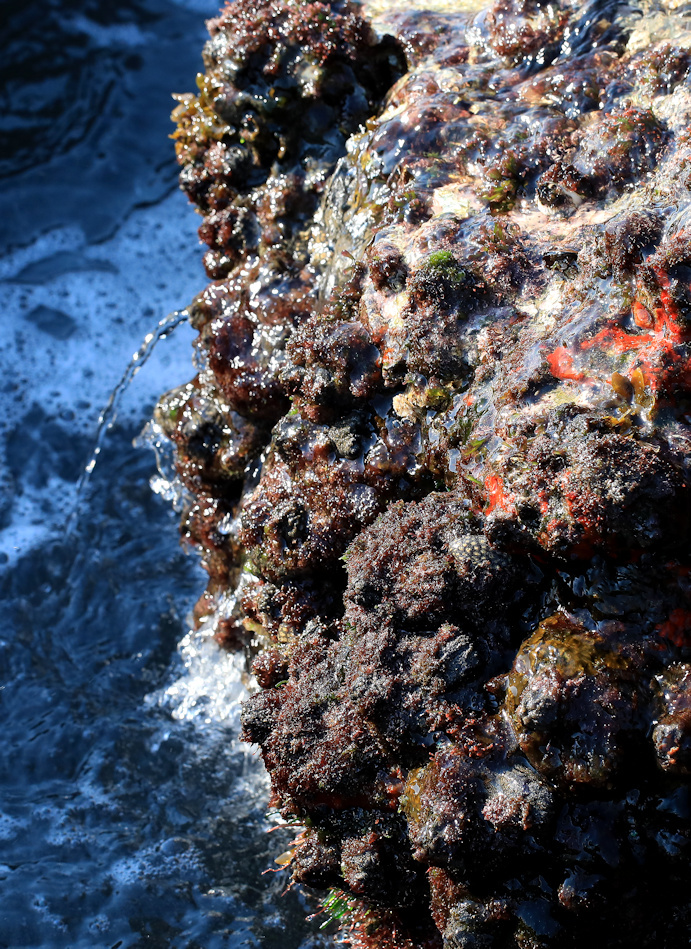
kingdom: Animalia
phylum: Chordata
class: Ascidiacea
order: Stolidobranchia
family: Pyuridae
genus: Pyura
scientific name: Pyura stolonifera
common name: Red bait
